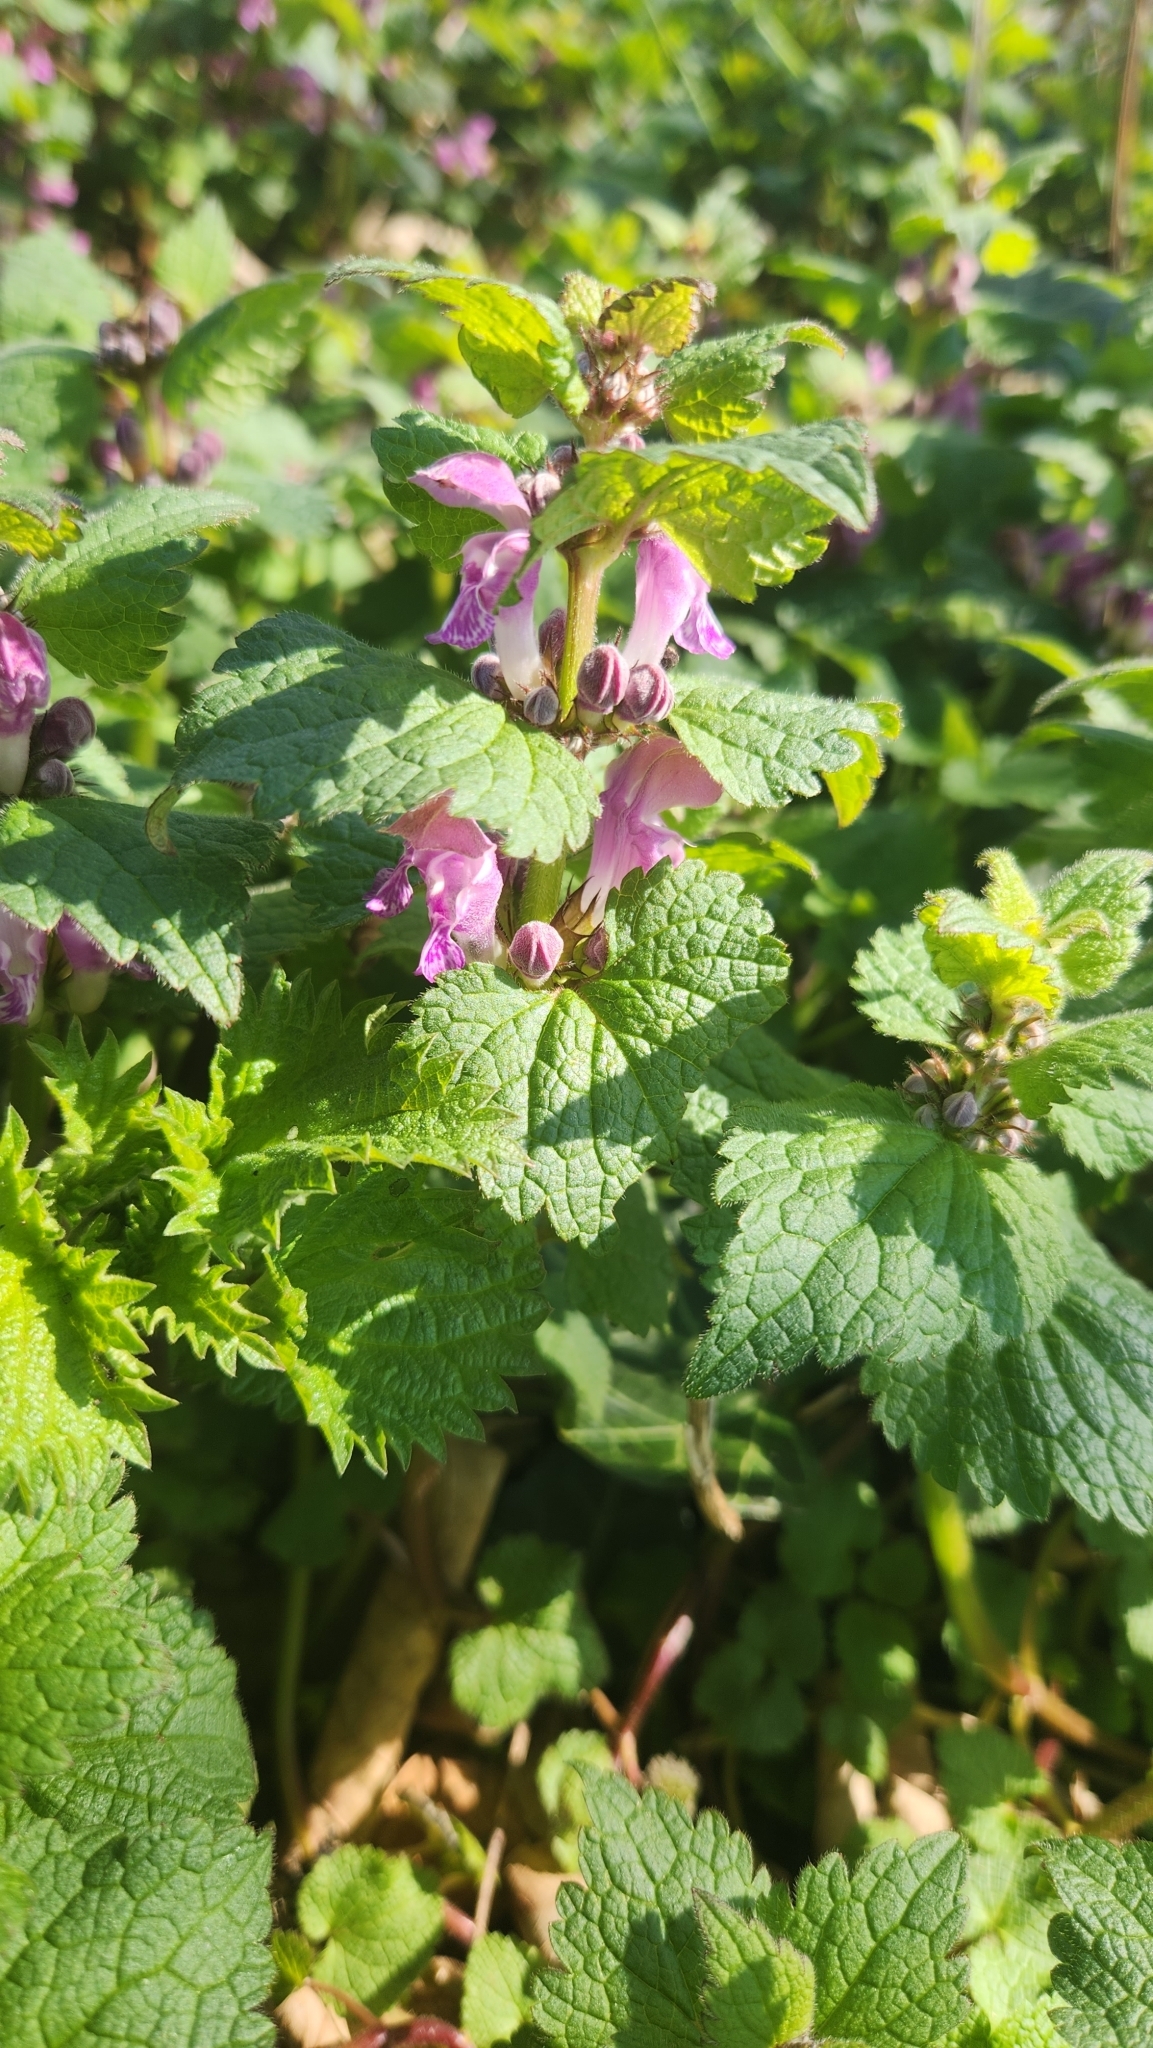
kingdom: Plantae
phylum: Tracheophyta
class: Magnoliopsida
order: Lamiales
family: Lamiaceae
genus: Lamium
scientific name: Lamium maculatum
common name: Spotted dead-nettle
